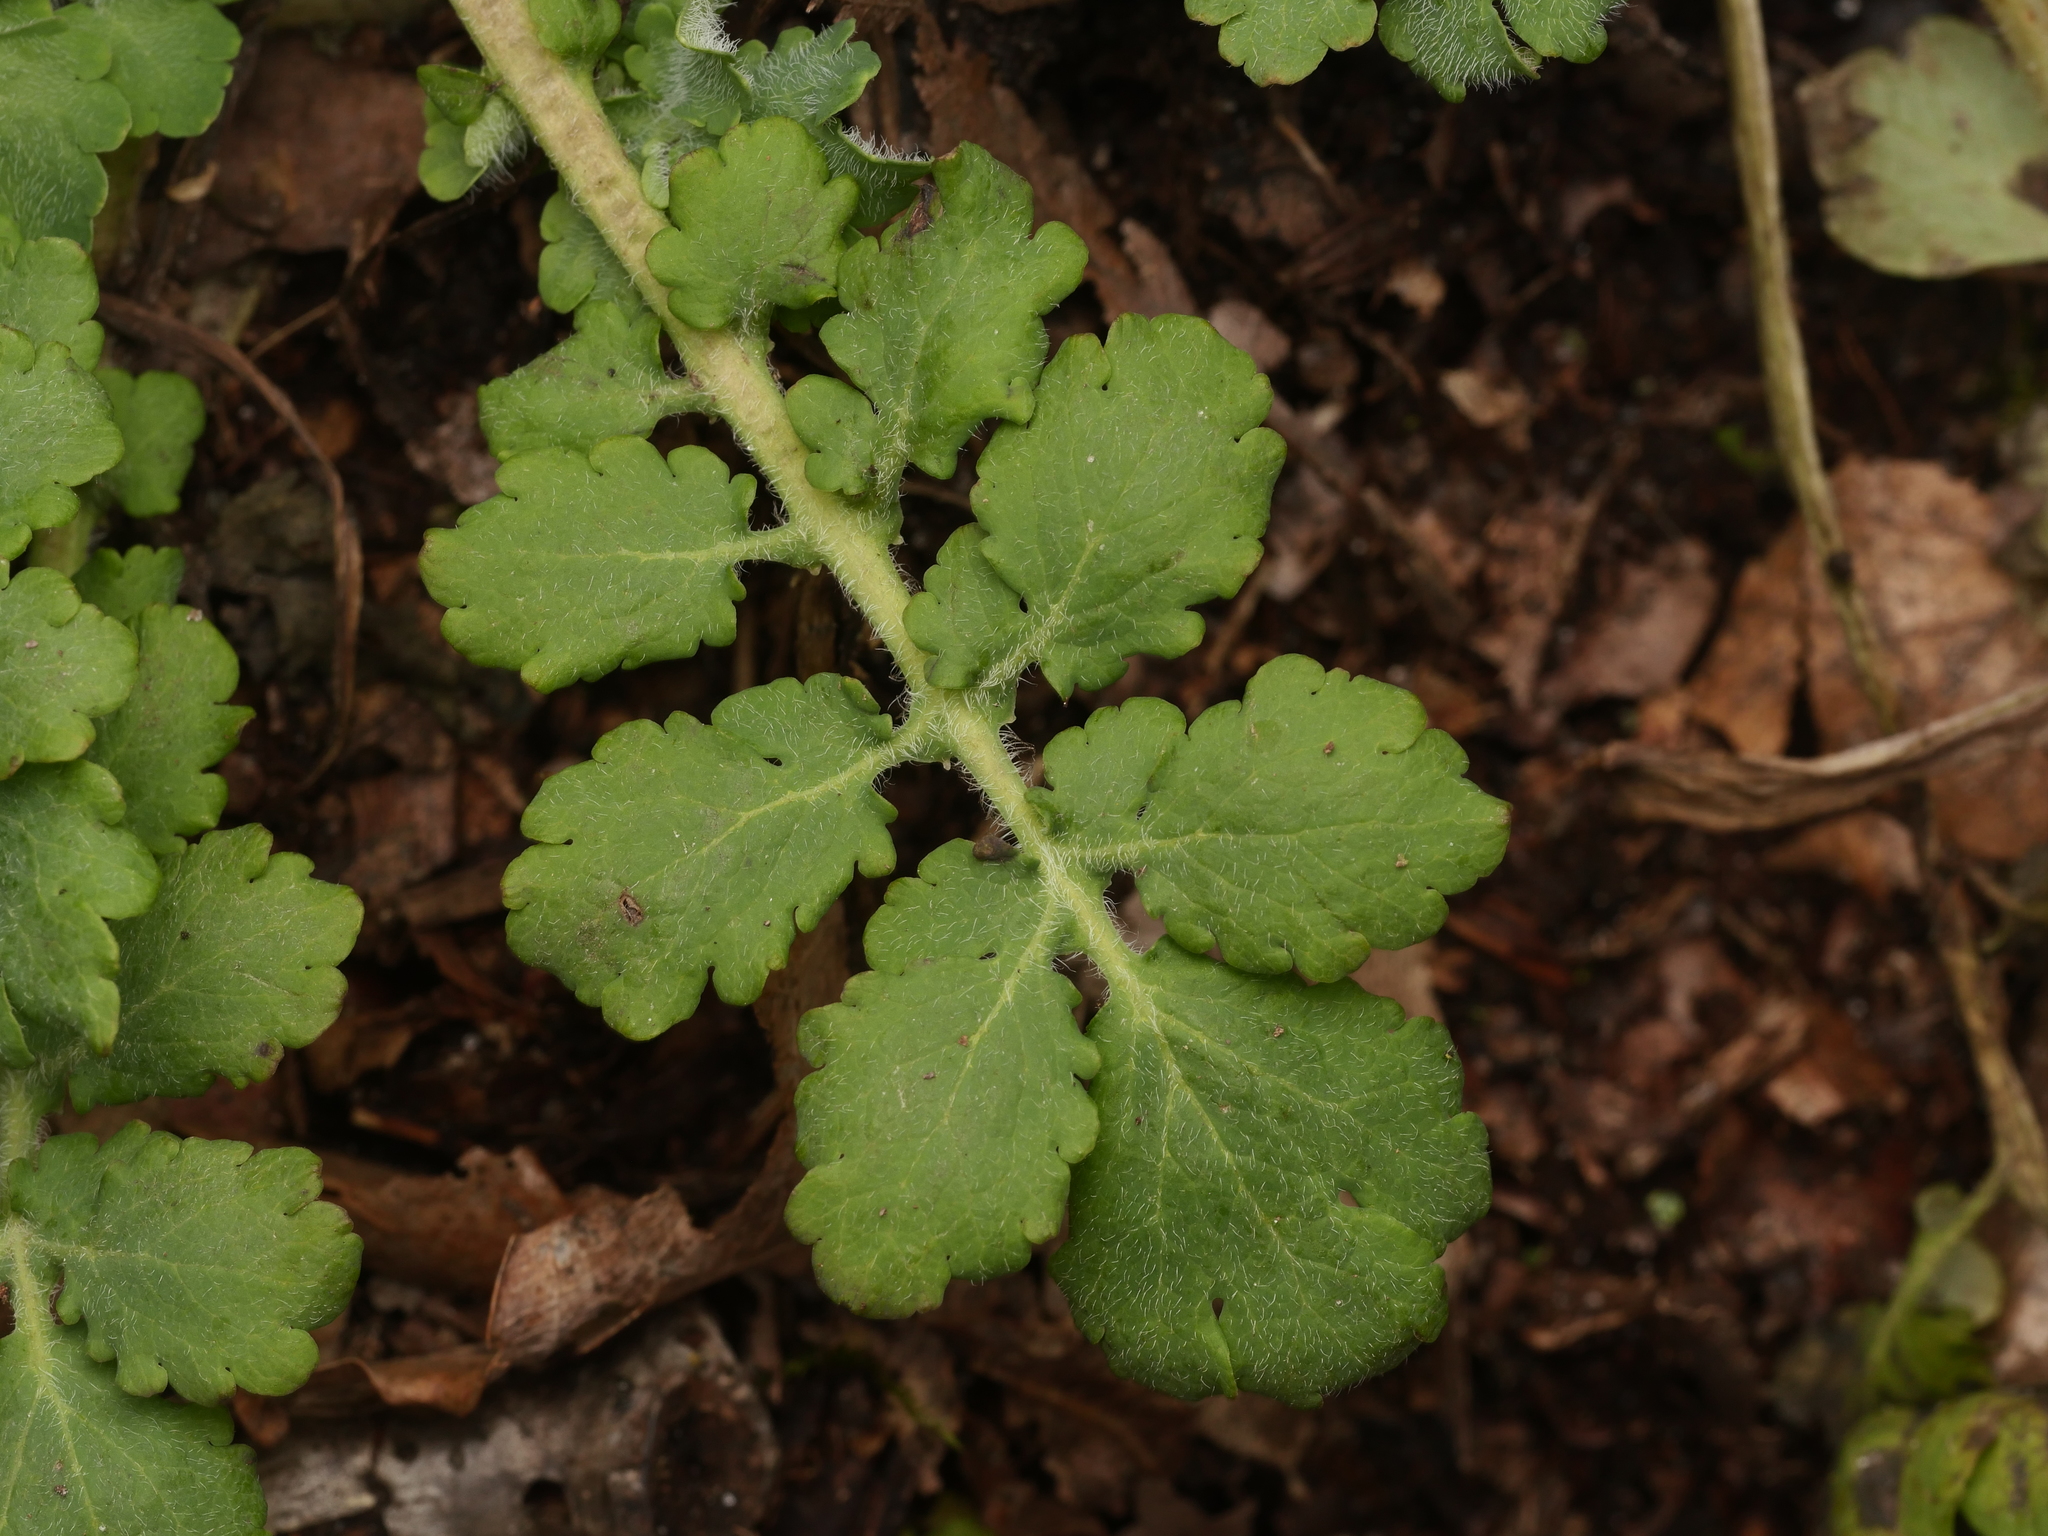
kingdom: Plantae
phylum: Tracheophyta
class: Magnoliopsida
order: Ranunculales
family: Papaveraceae
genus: Chelidonium
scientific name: Chelidonium majus
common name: Greater celandine
